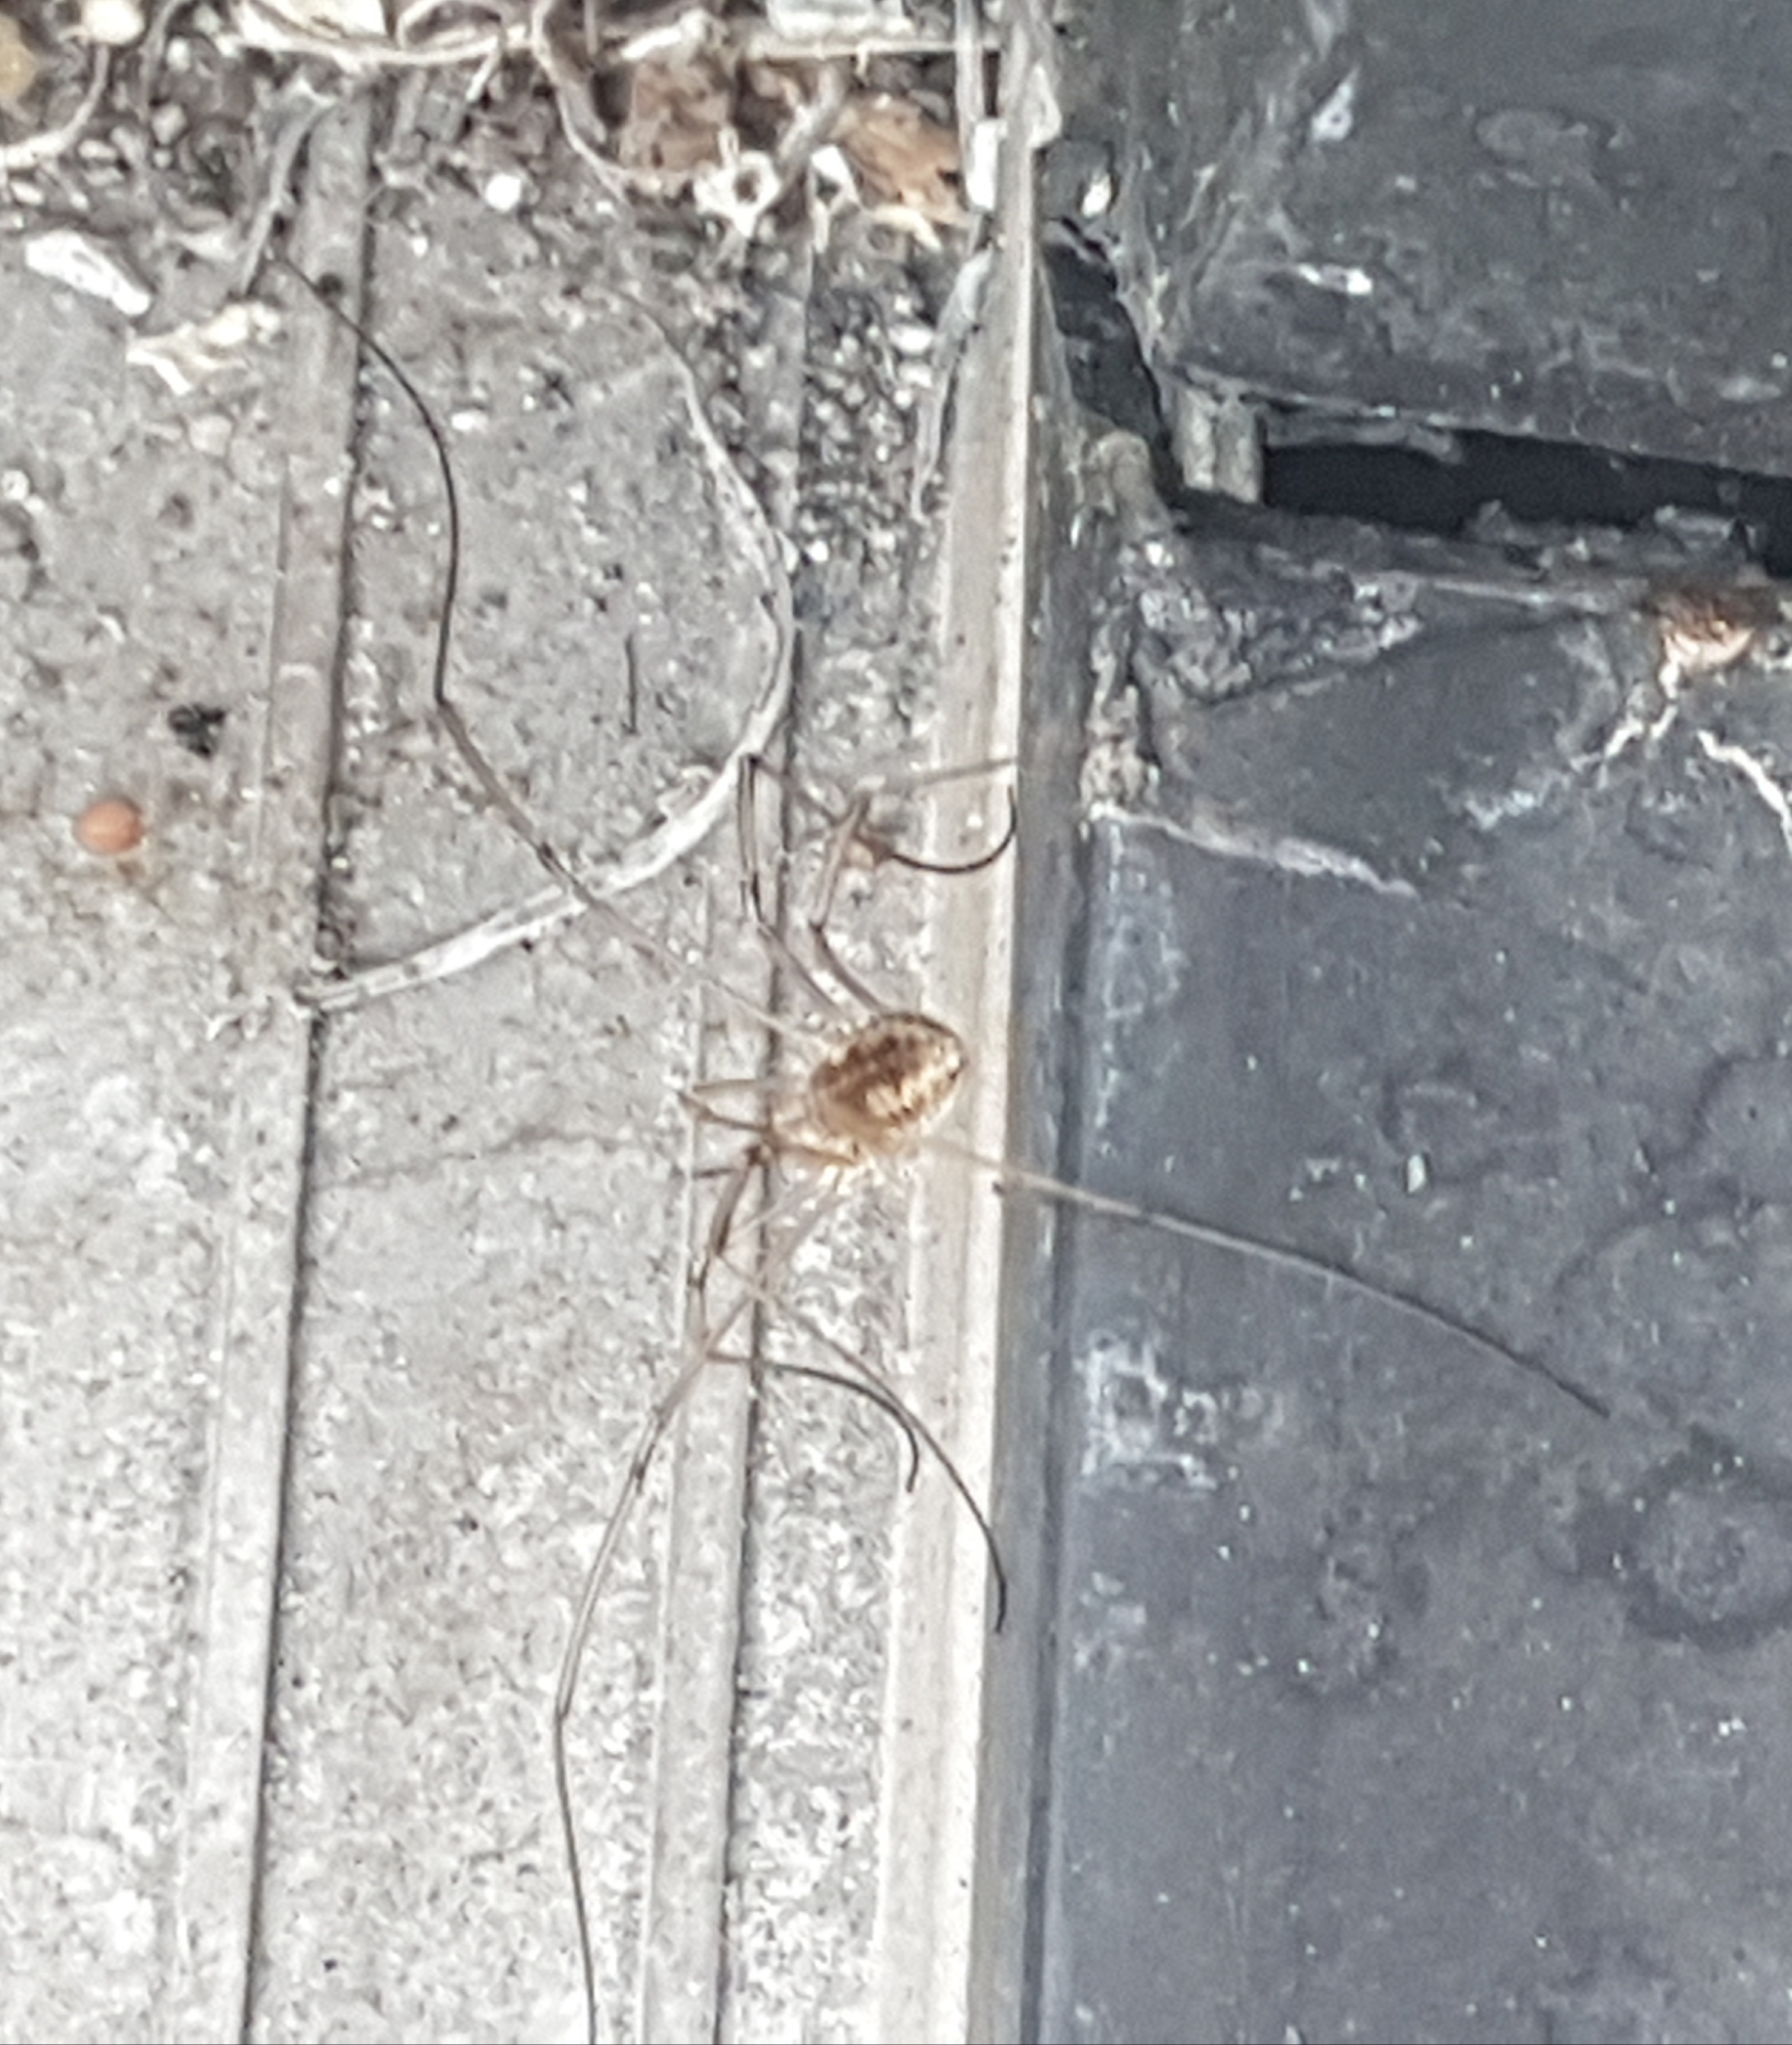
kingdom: Animalia
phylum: Arthropoda
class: Arachnida
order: Opiliones
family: Phalangiidae
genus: Phalangium
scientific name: Phalangium opilio
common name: Daddy longleg
